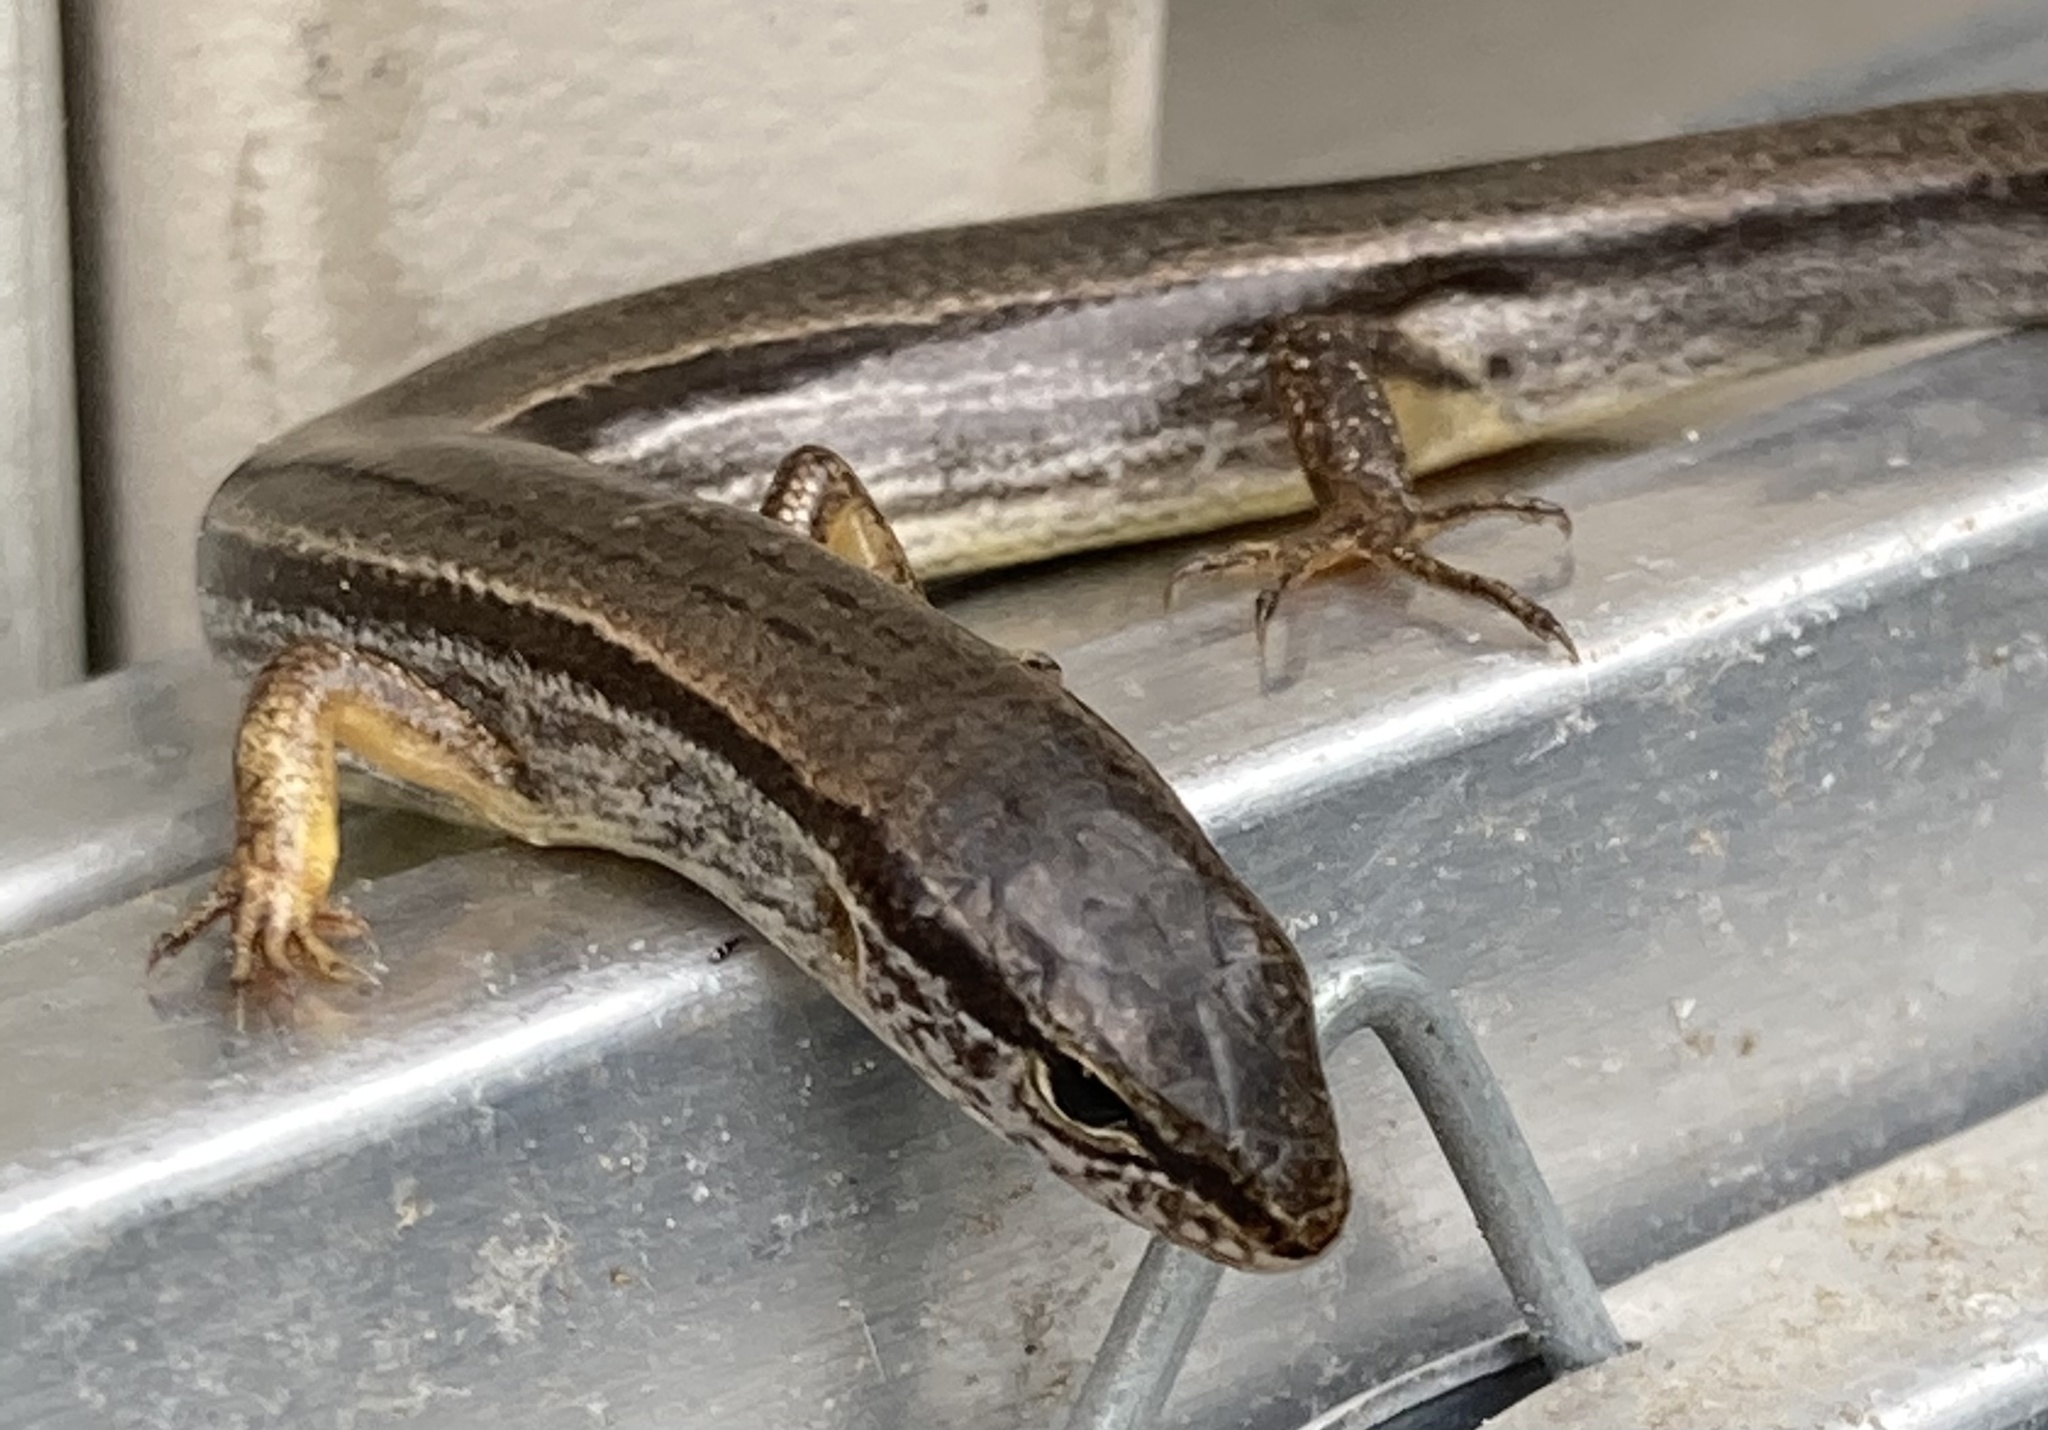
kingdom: Animalia
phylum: Chordata
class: Squamata
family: Scincidae
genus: Scincella
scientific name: Scincella lateralis
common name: Ground skink
